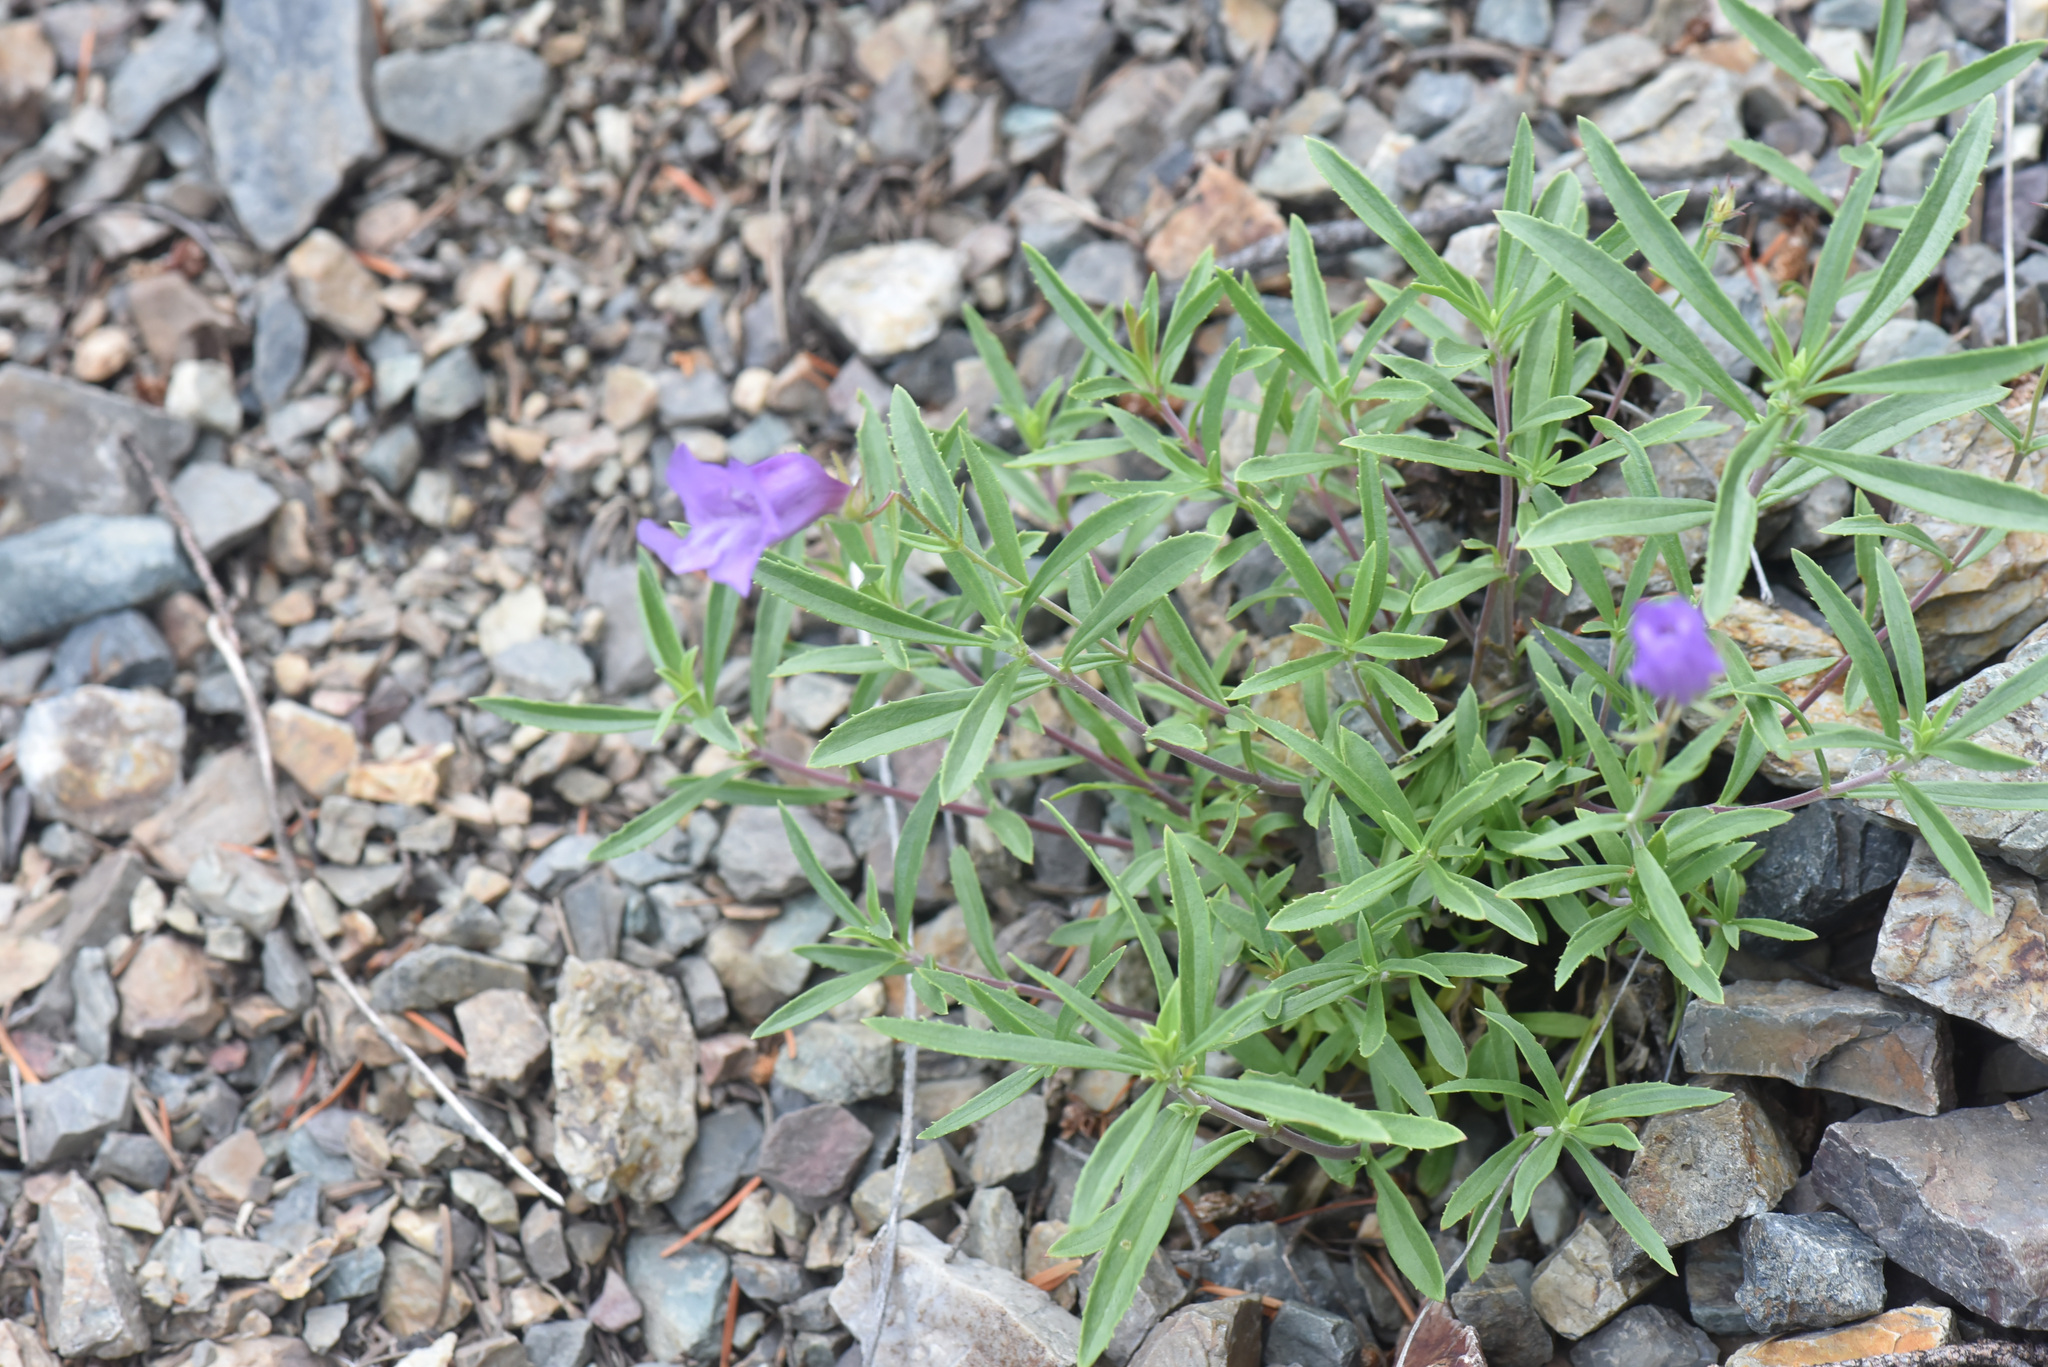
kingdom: Plantae
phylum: Tracheophyta
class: Magnoliopsida
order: Lamiales
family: Plantaginaceae
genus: Penstemon
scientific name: Penstemon fruticosus
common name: Bush penstemon
